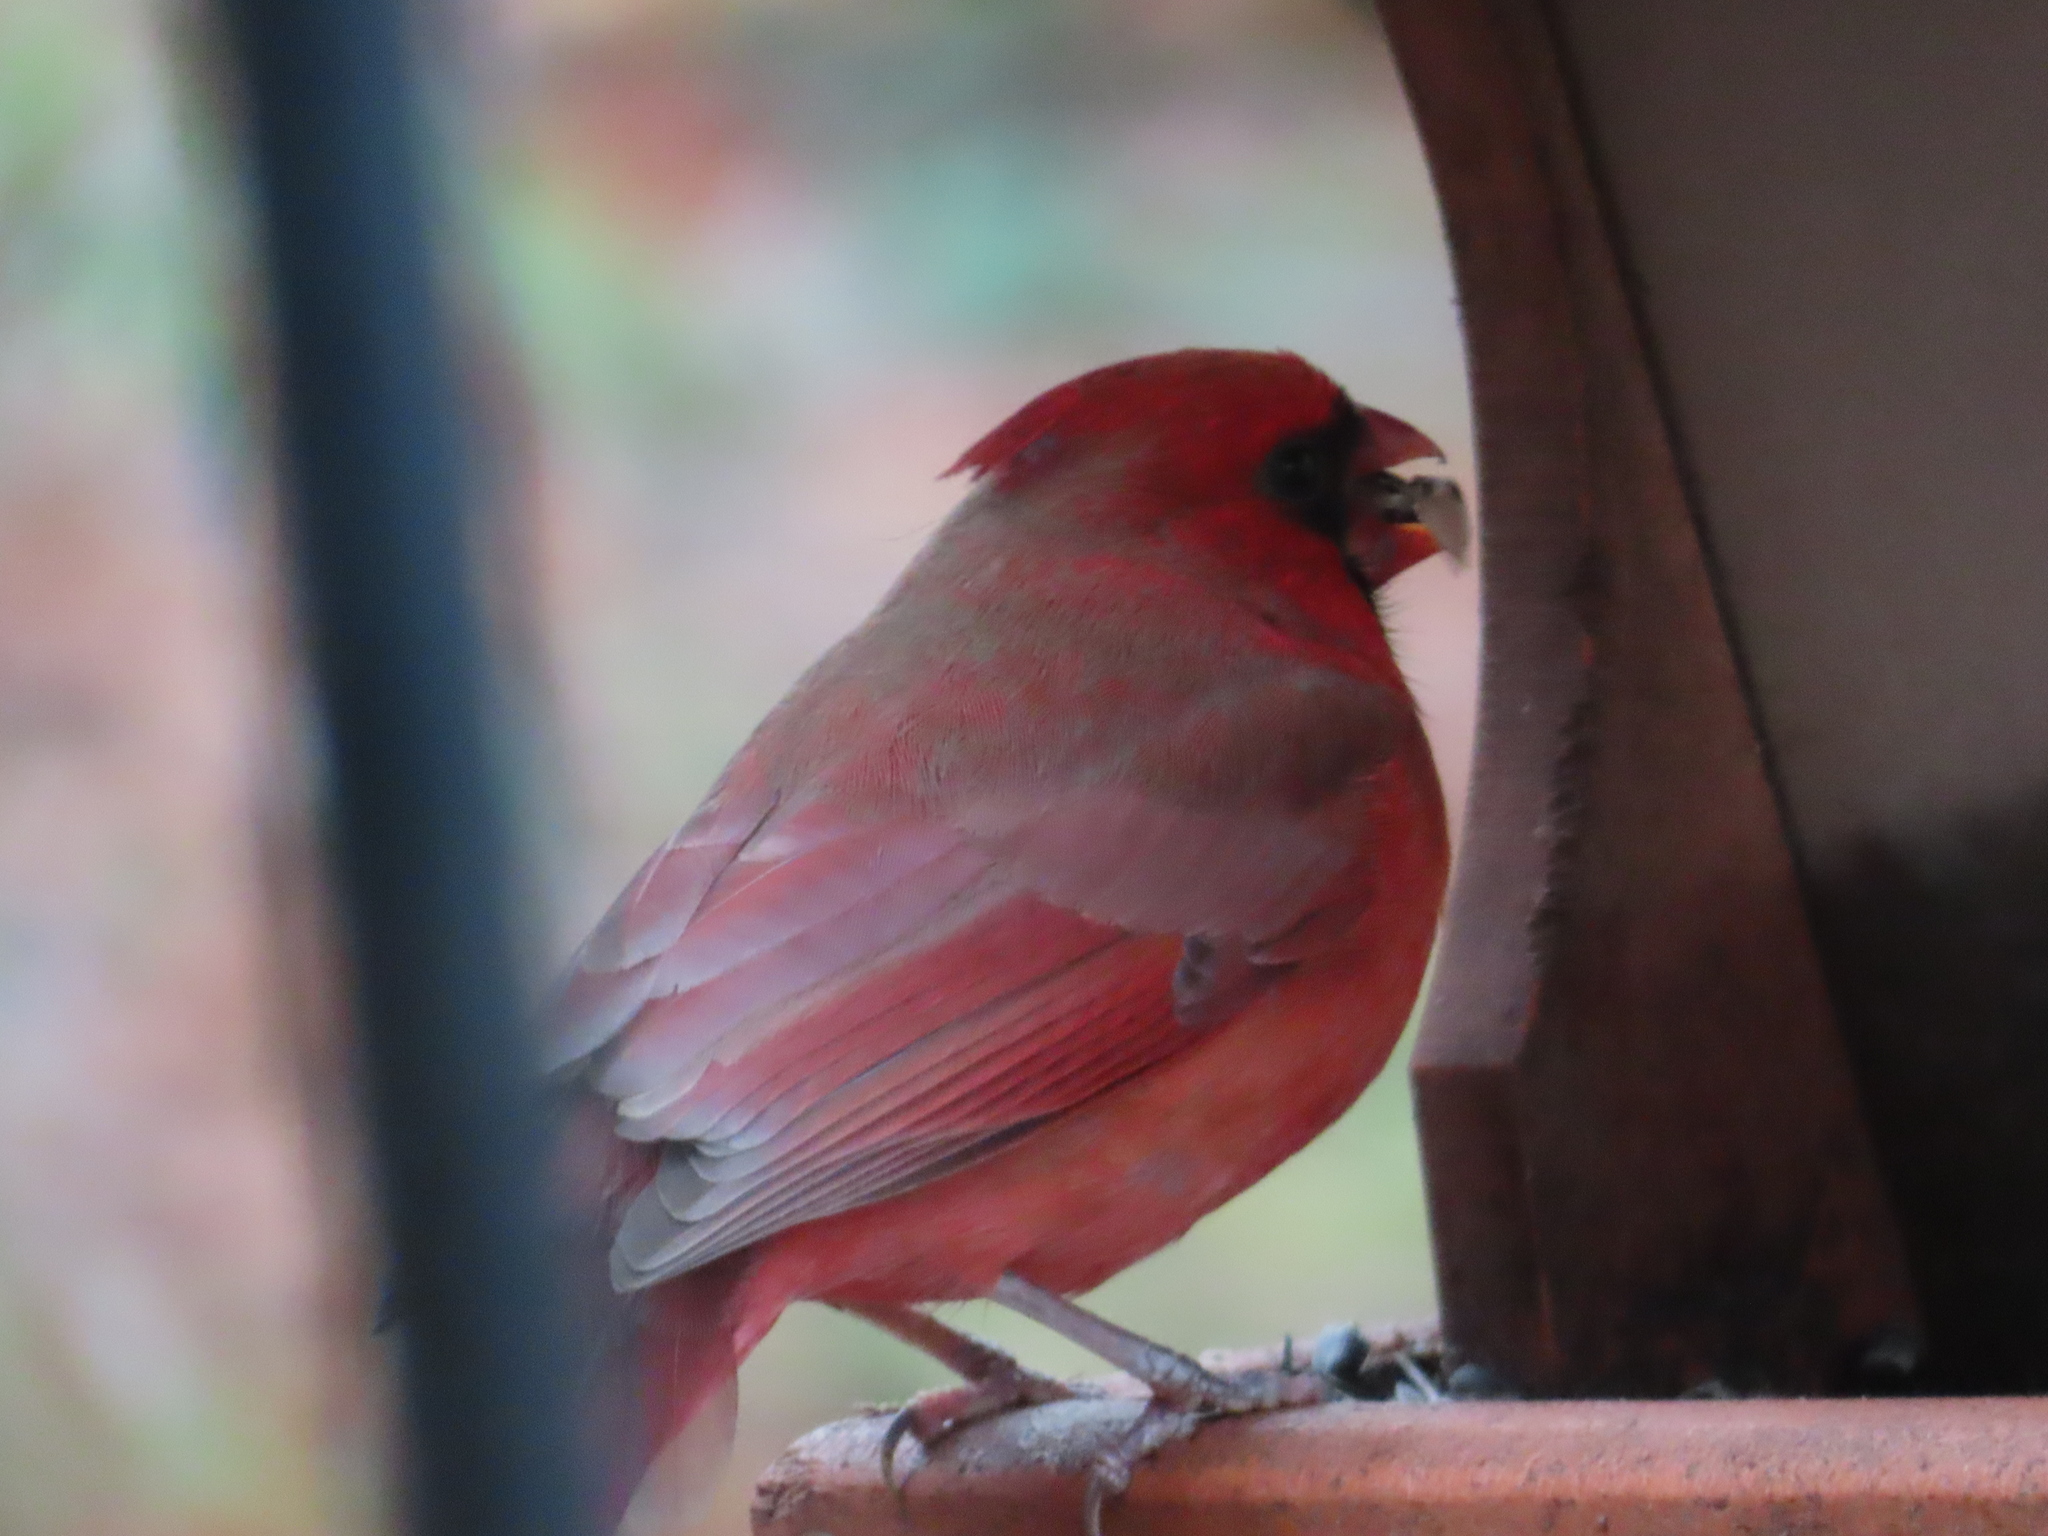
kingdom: Animalia
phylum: Chordata
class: Aves
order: Passeriformes
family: Cardinalidae
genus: Cardinalis
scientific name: Cardinalis cardinalis
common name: Northern cardinal
